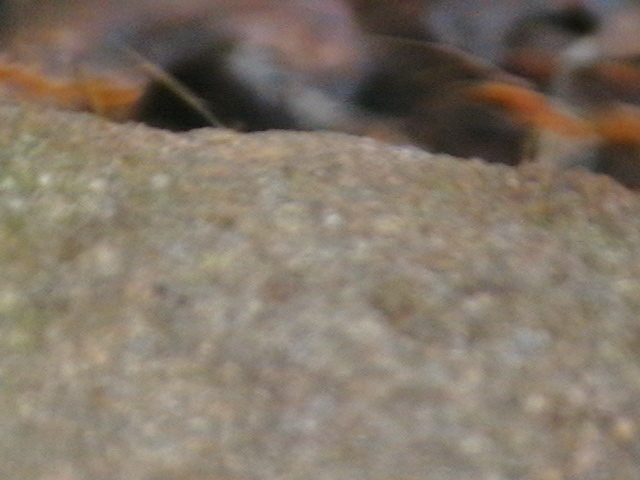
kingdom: Animalia
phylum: Arthropoda
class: Insecta
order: Hymenoptera
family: Formicidae
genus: Oecophylla
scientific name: Oecophylla smaragdina
